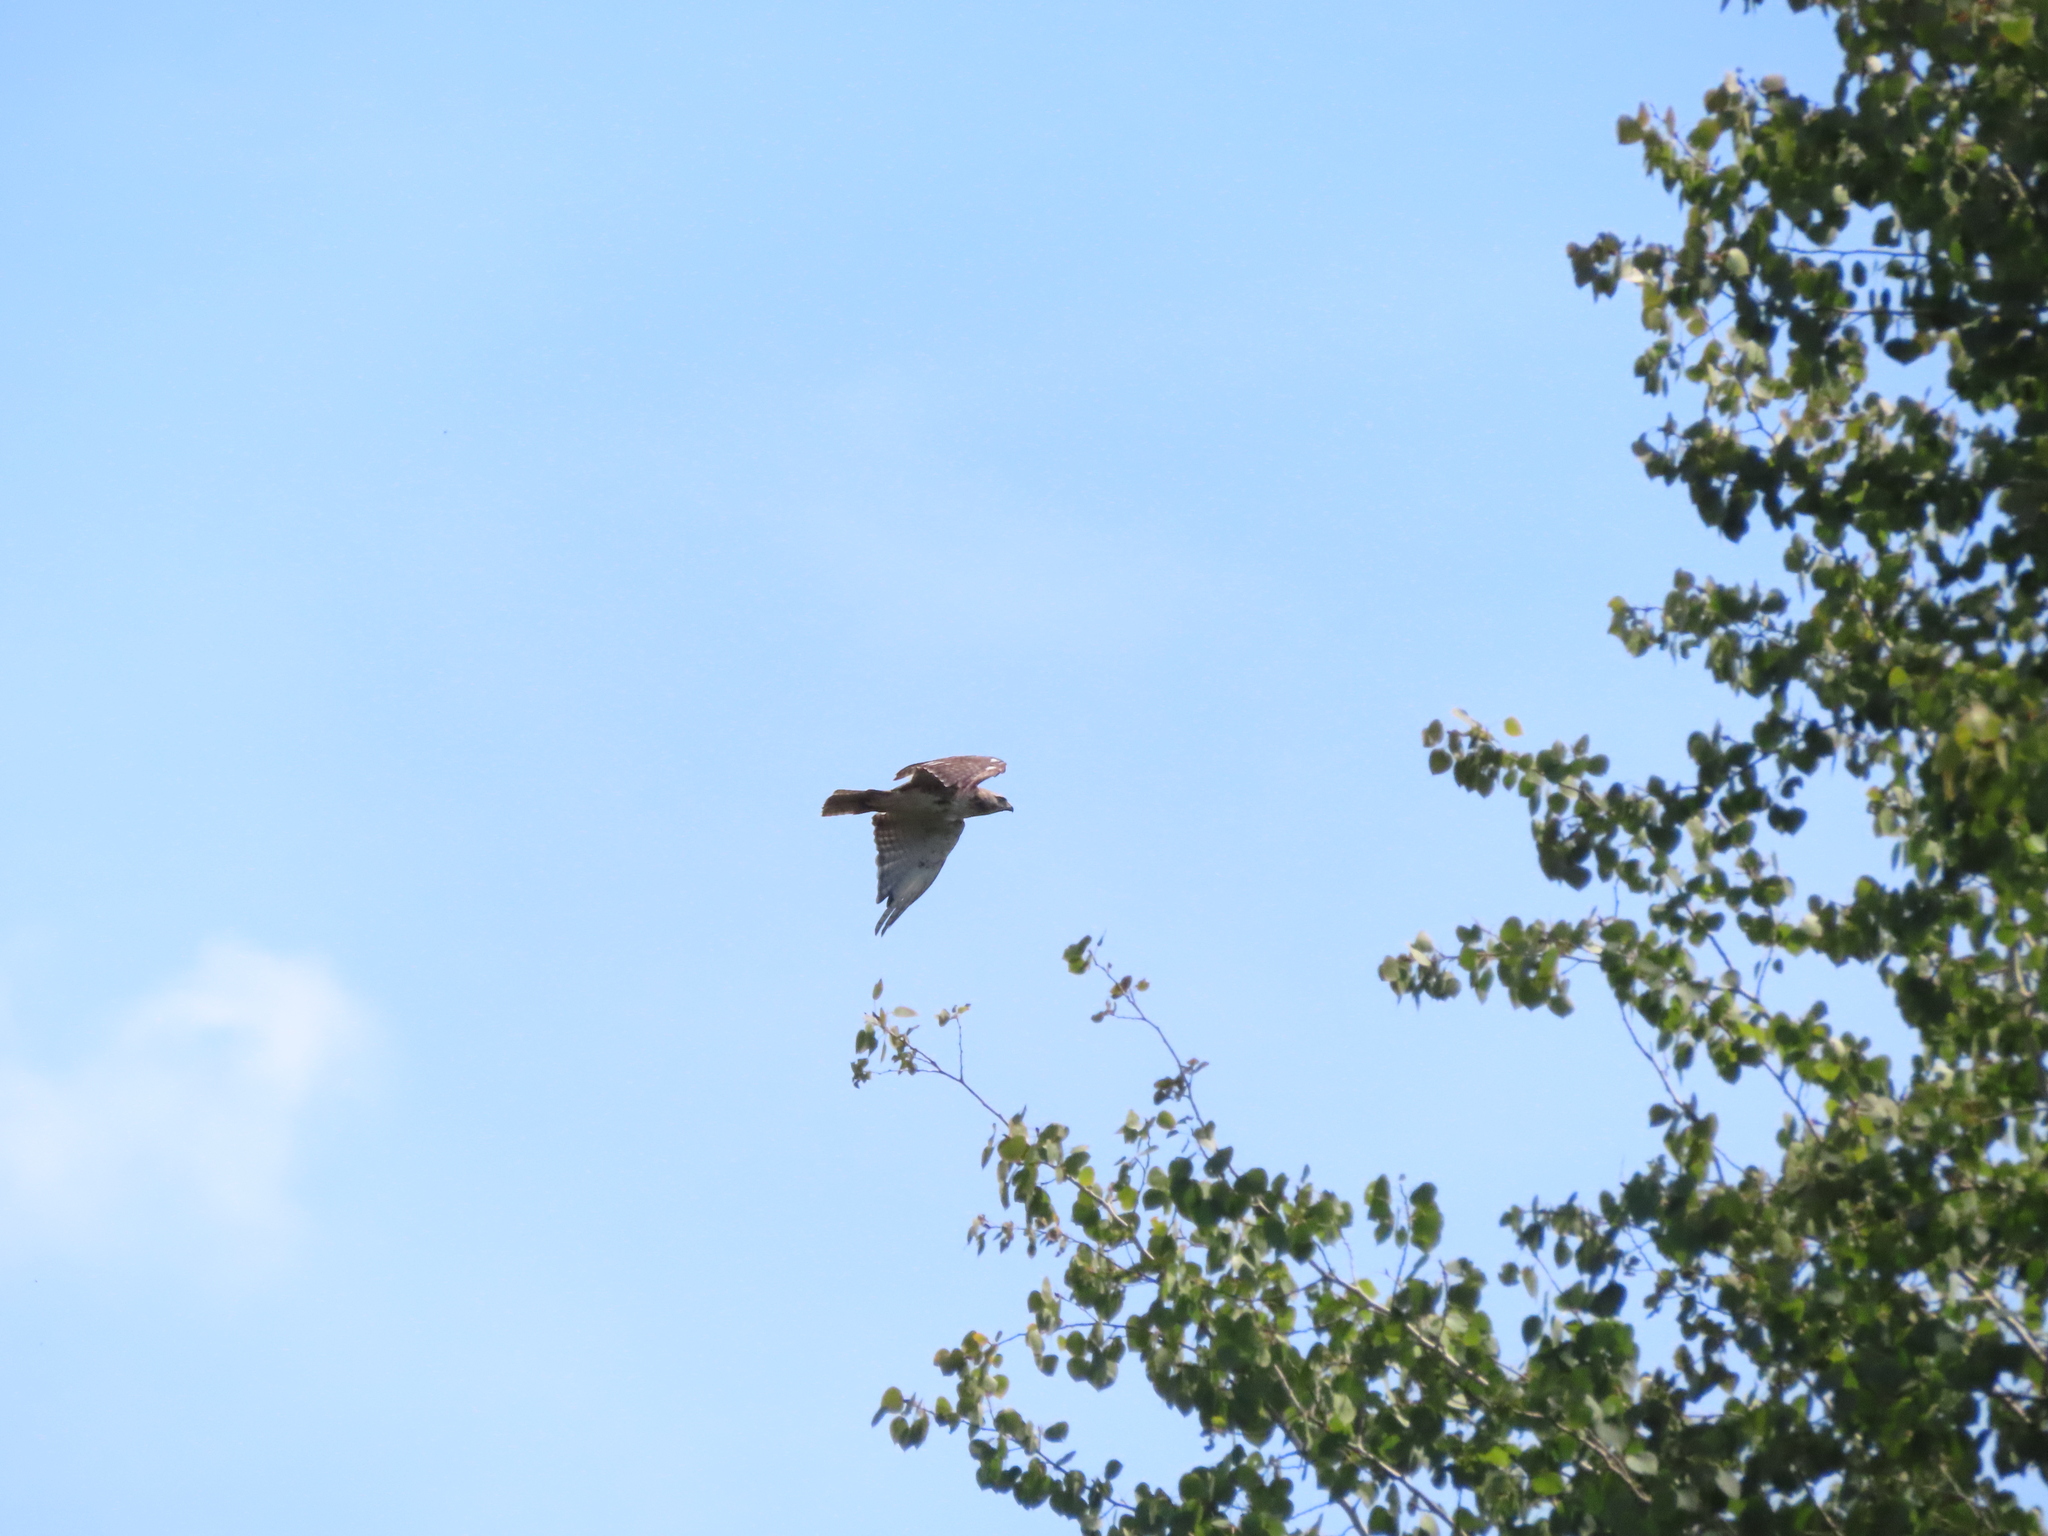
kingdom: Animalia
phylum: Chordata
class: Aves
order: Accipitriformes
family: Accipitridae
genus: Buteo
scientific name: Buteo jamaicensis
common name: Red-tailed hawk
